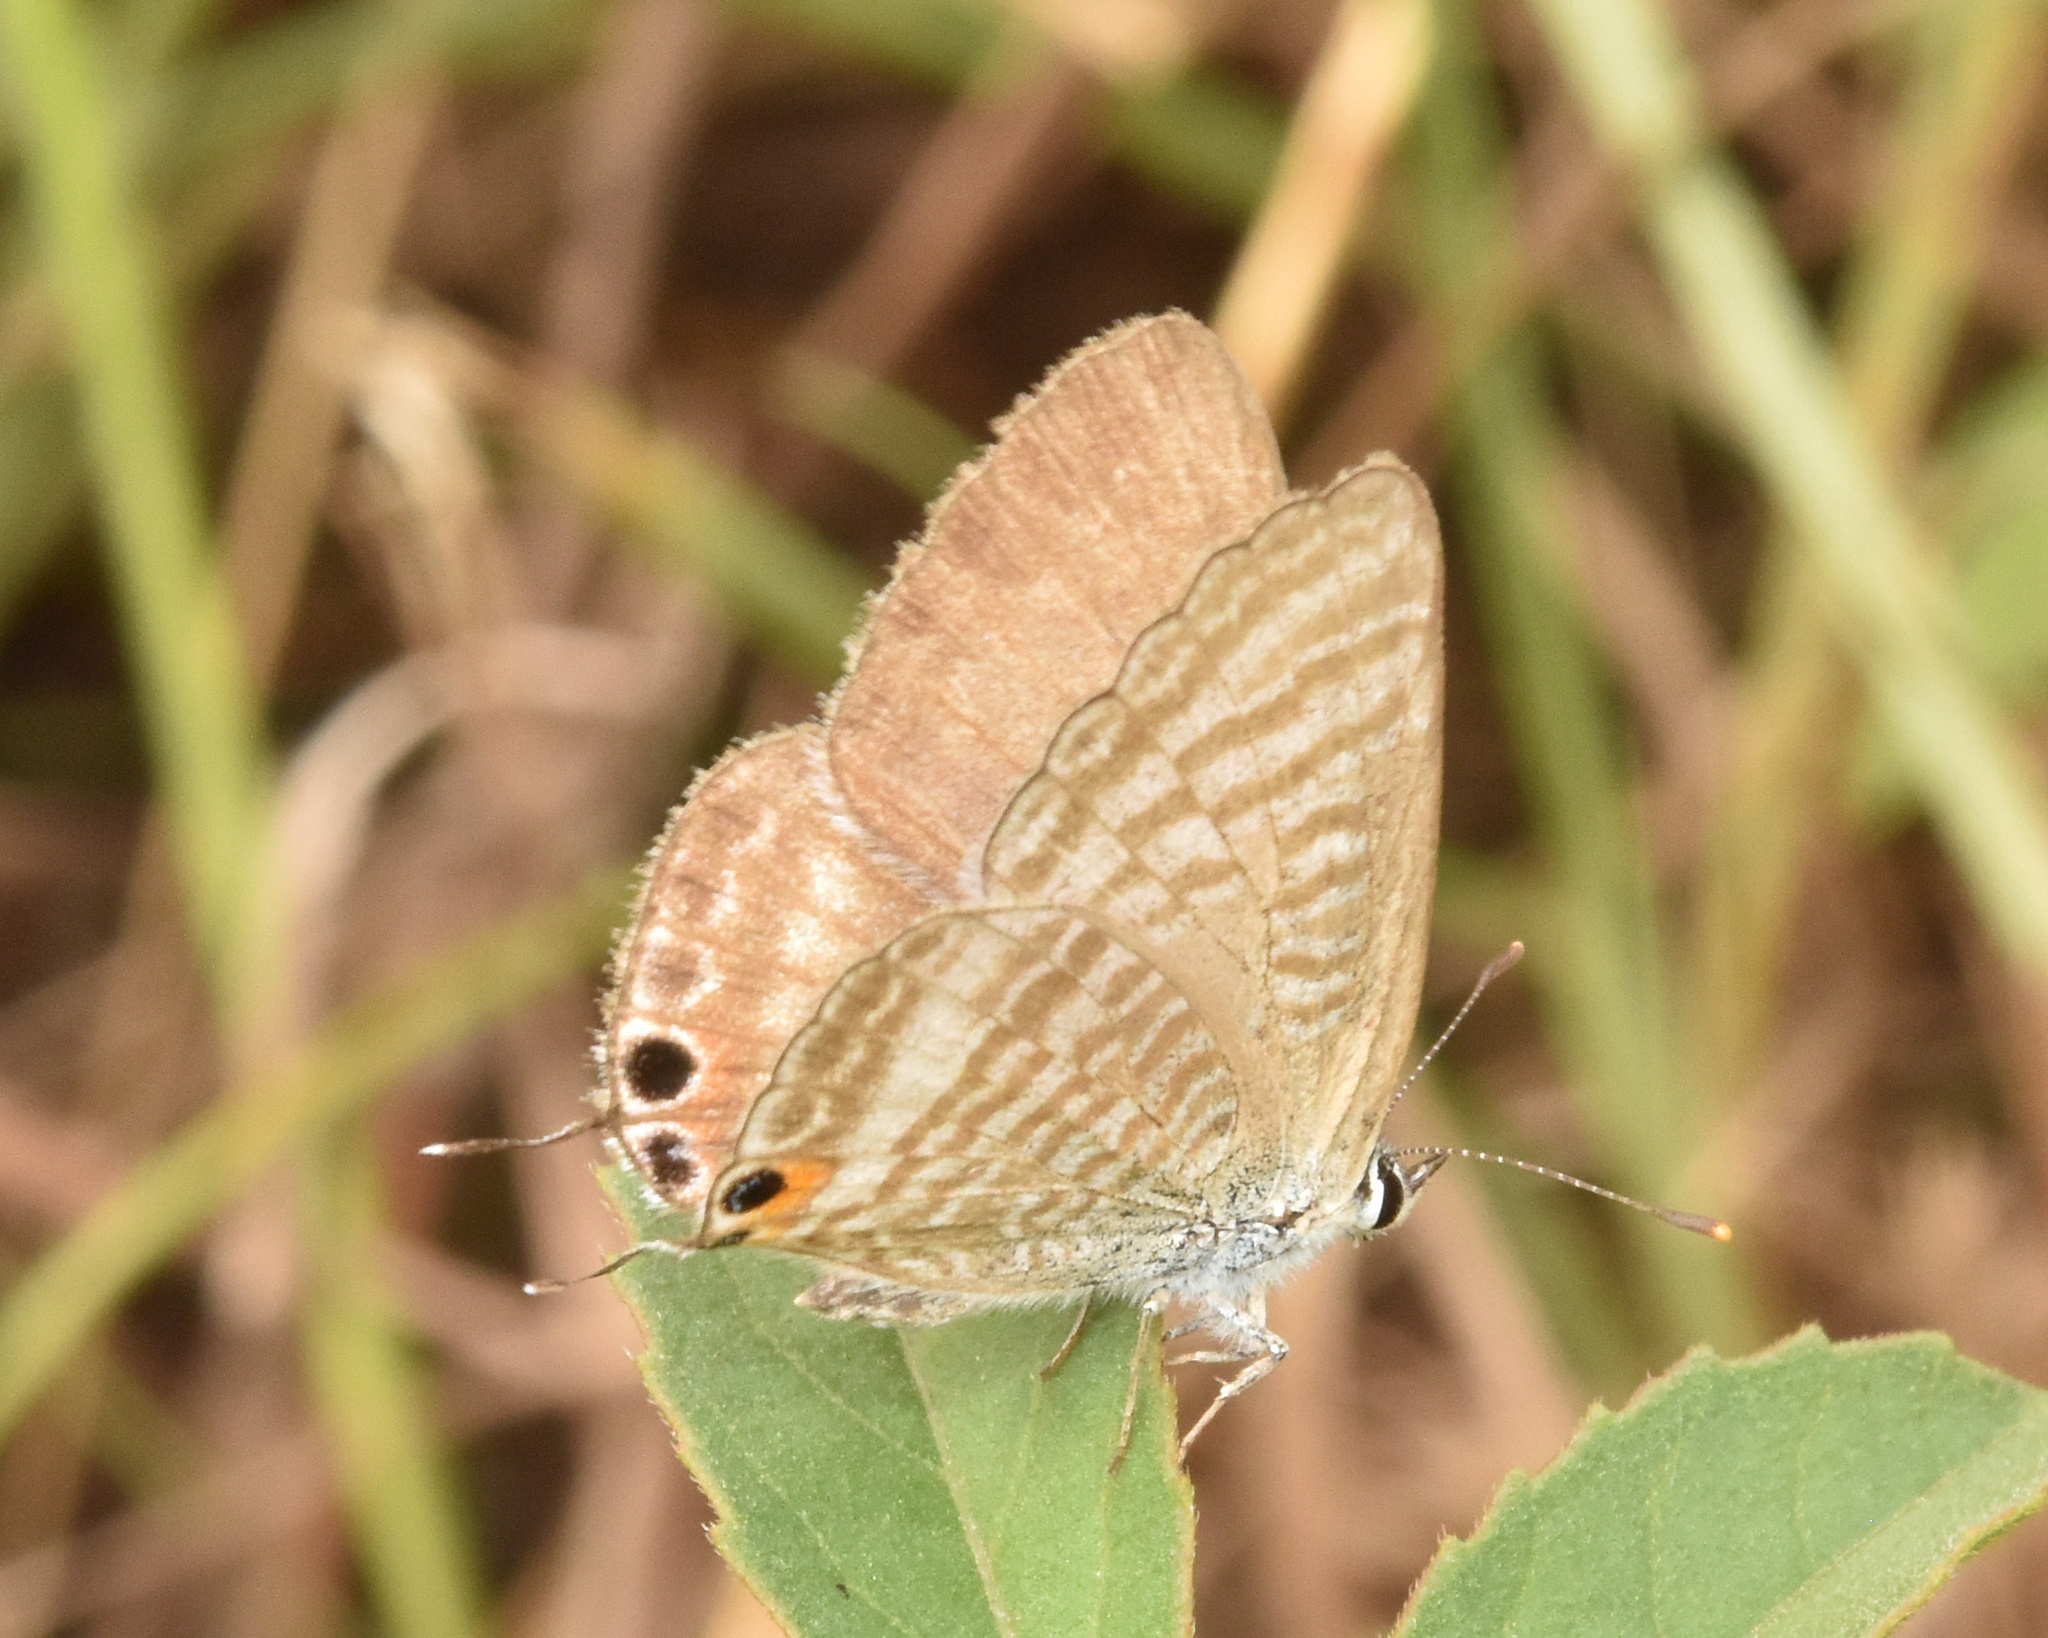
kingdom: Animalia
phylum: Arthropoda
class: Insecta
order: Lepidoptera
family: Lycaenidae
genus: Lampides
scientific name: Lampides boeticus
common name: Long-tailed blue
